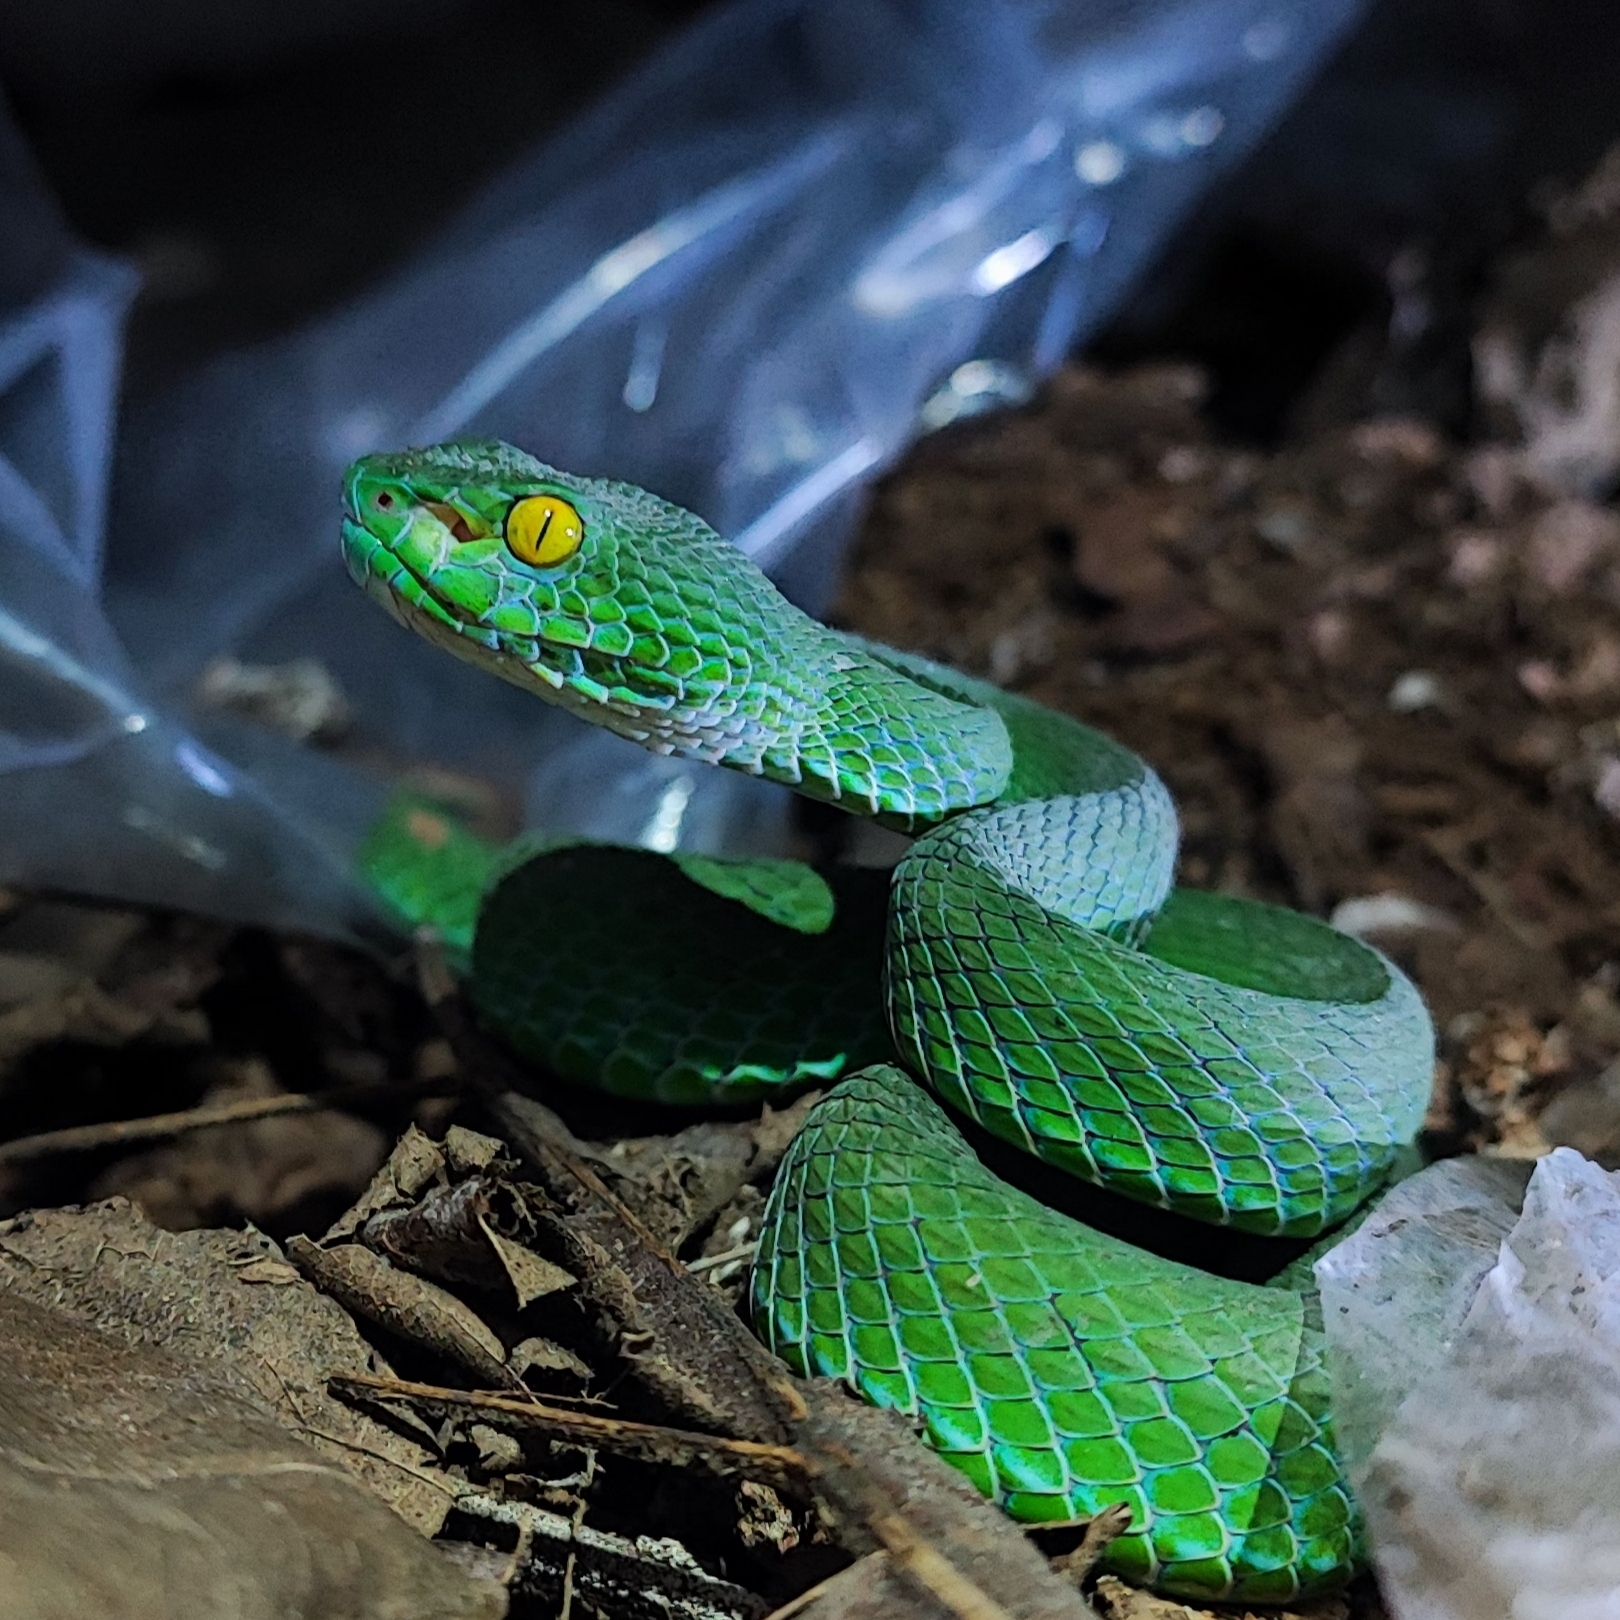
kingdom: Animalia
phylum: Chordata
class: Squamata
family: Viperidae
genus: Trimeresurus
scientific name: Trimeresurus macrops
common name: Kramer's pit viper
